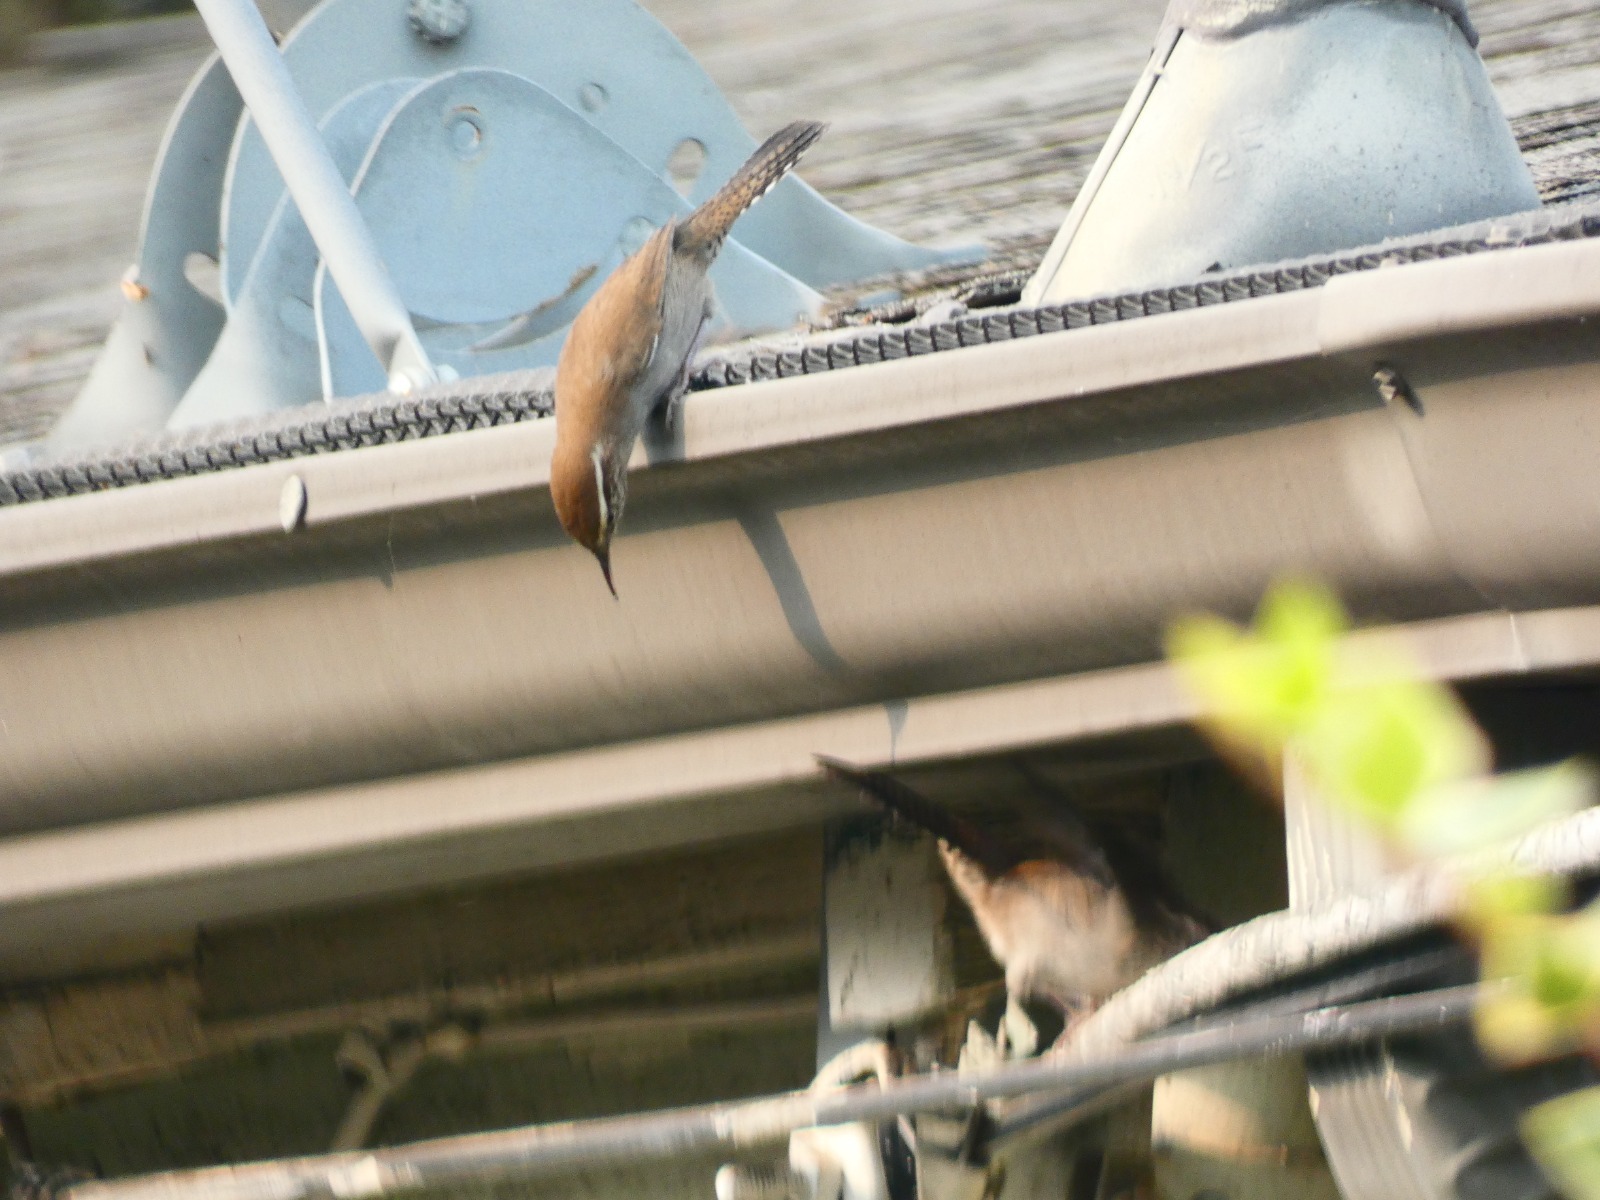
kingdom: Animalia
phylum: Chordata
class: Aves
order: Passeriformes
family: Troglodytidae
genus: Thryomanes
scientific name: Thryomanes bewickii
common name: Bewick's wren
